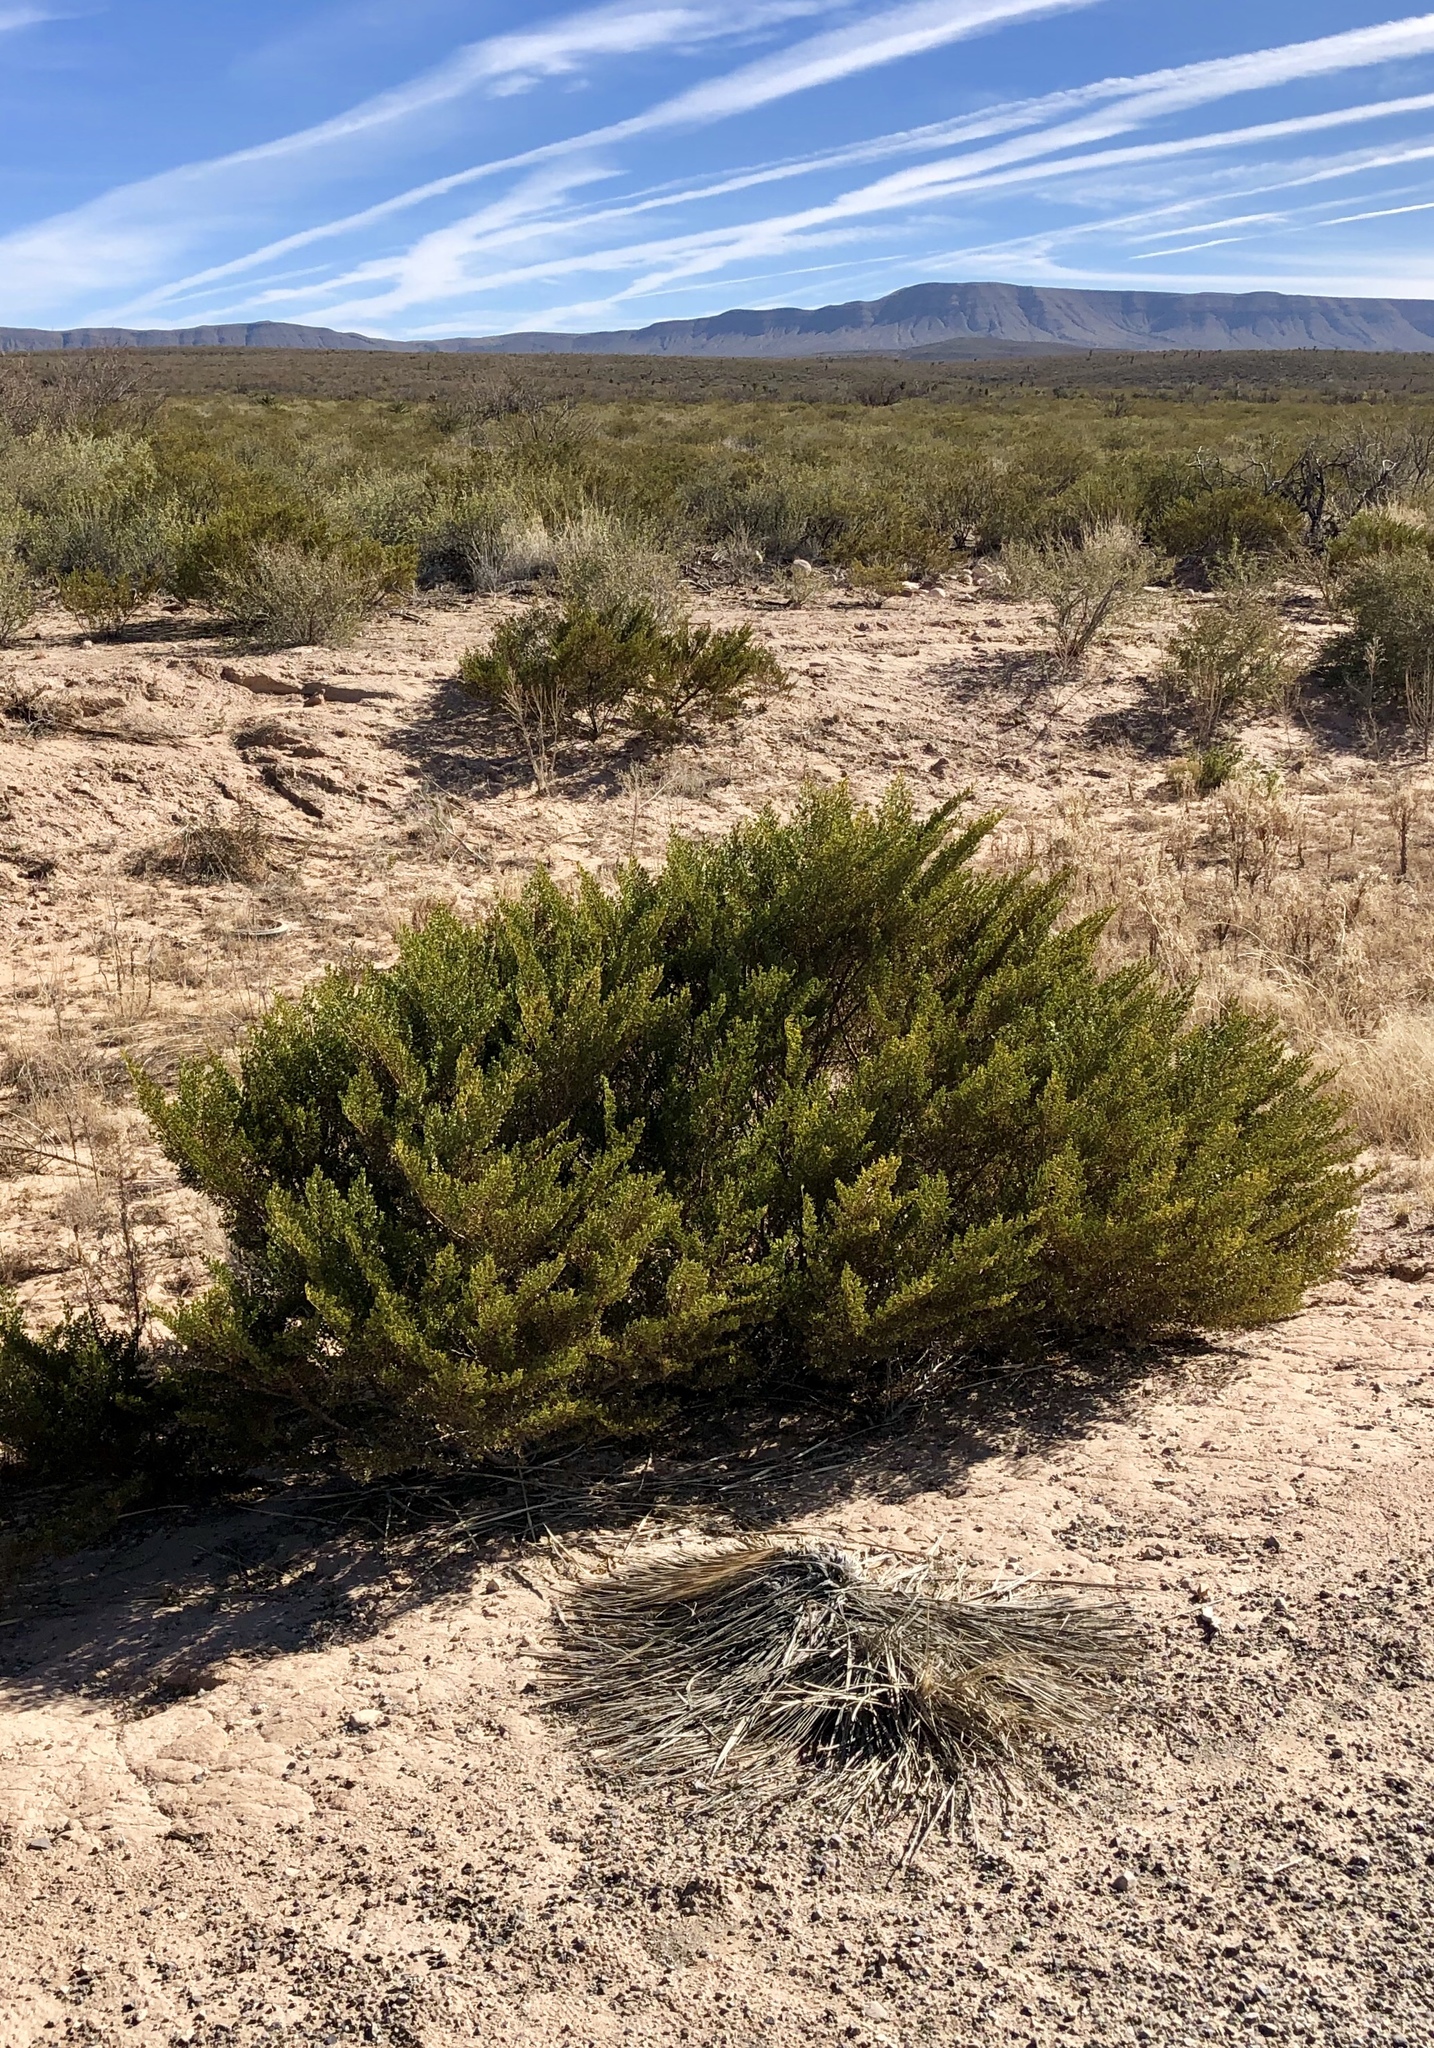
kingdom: Plantae
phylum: Tracheophyta
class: Magnoliopsida
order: Zygophyllales
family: Zygophyllaceae
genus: Larrea
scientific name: Larrea tridentata
